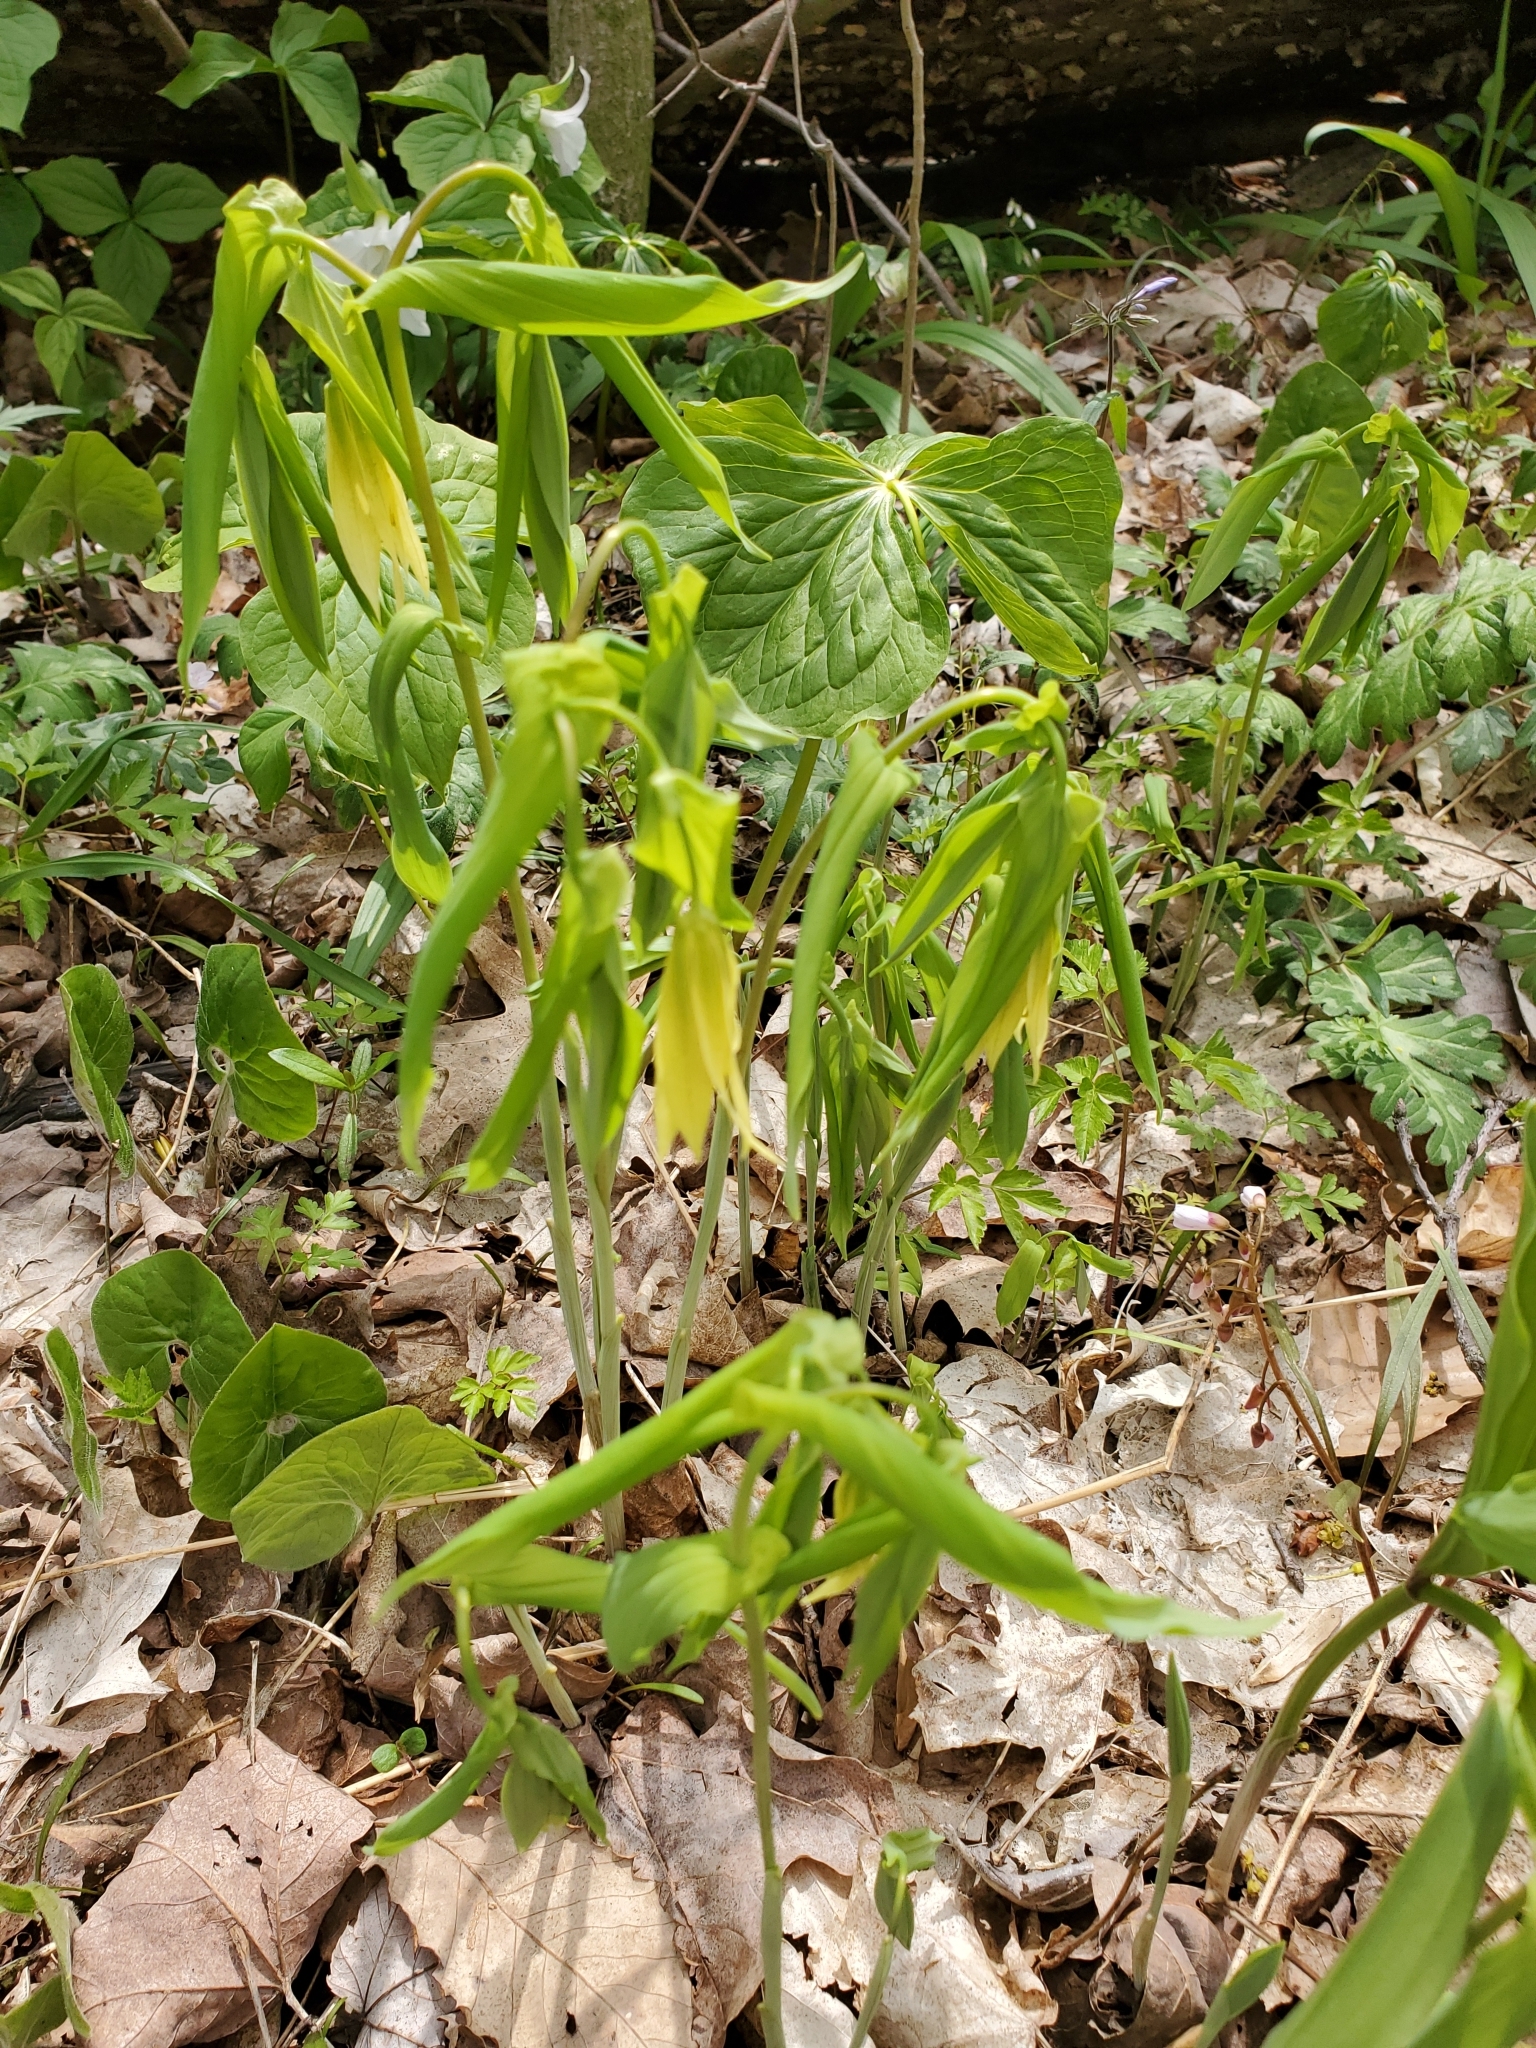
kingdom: Plantae
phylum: Tracheophyta
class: Liliopsida
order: Liliales
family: Colchicaceae
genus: Uvularia
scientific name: Uvularia grandiflora
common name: Bellwort
